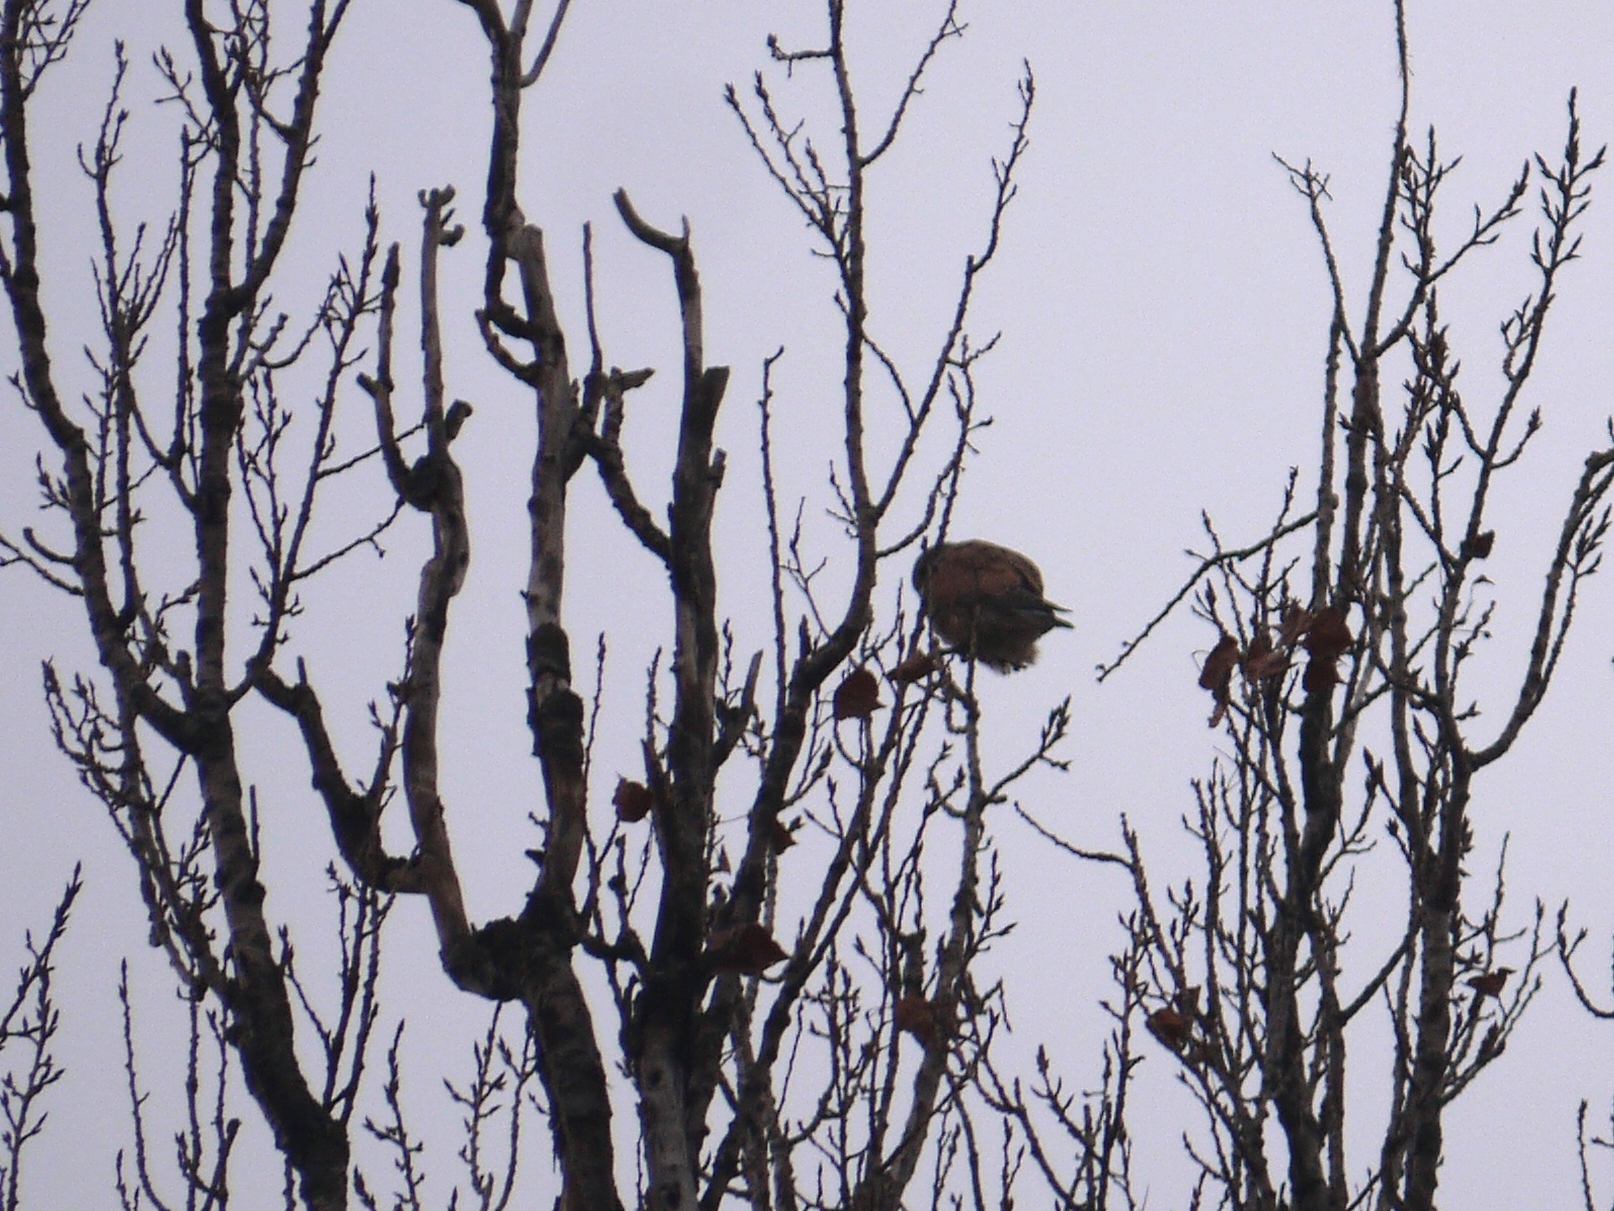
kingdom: Animalia
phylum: Chordata
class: Aves
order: Falconiformes
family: Falconidae
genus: Falco
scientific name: Falco tinnunculus
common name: Common kestrel
